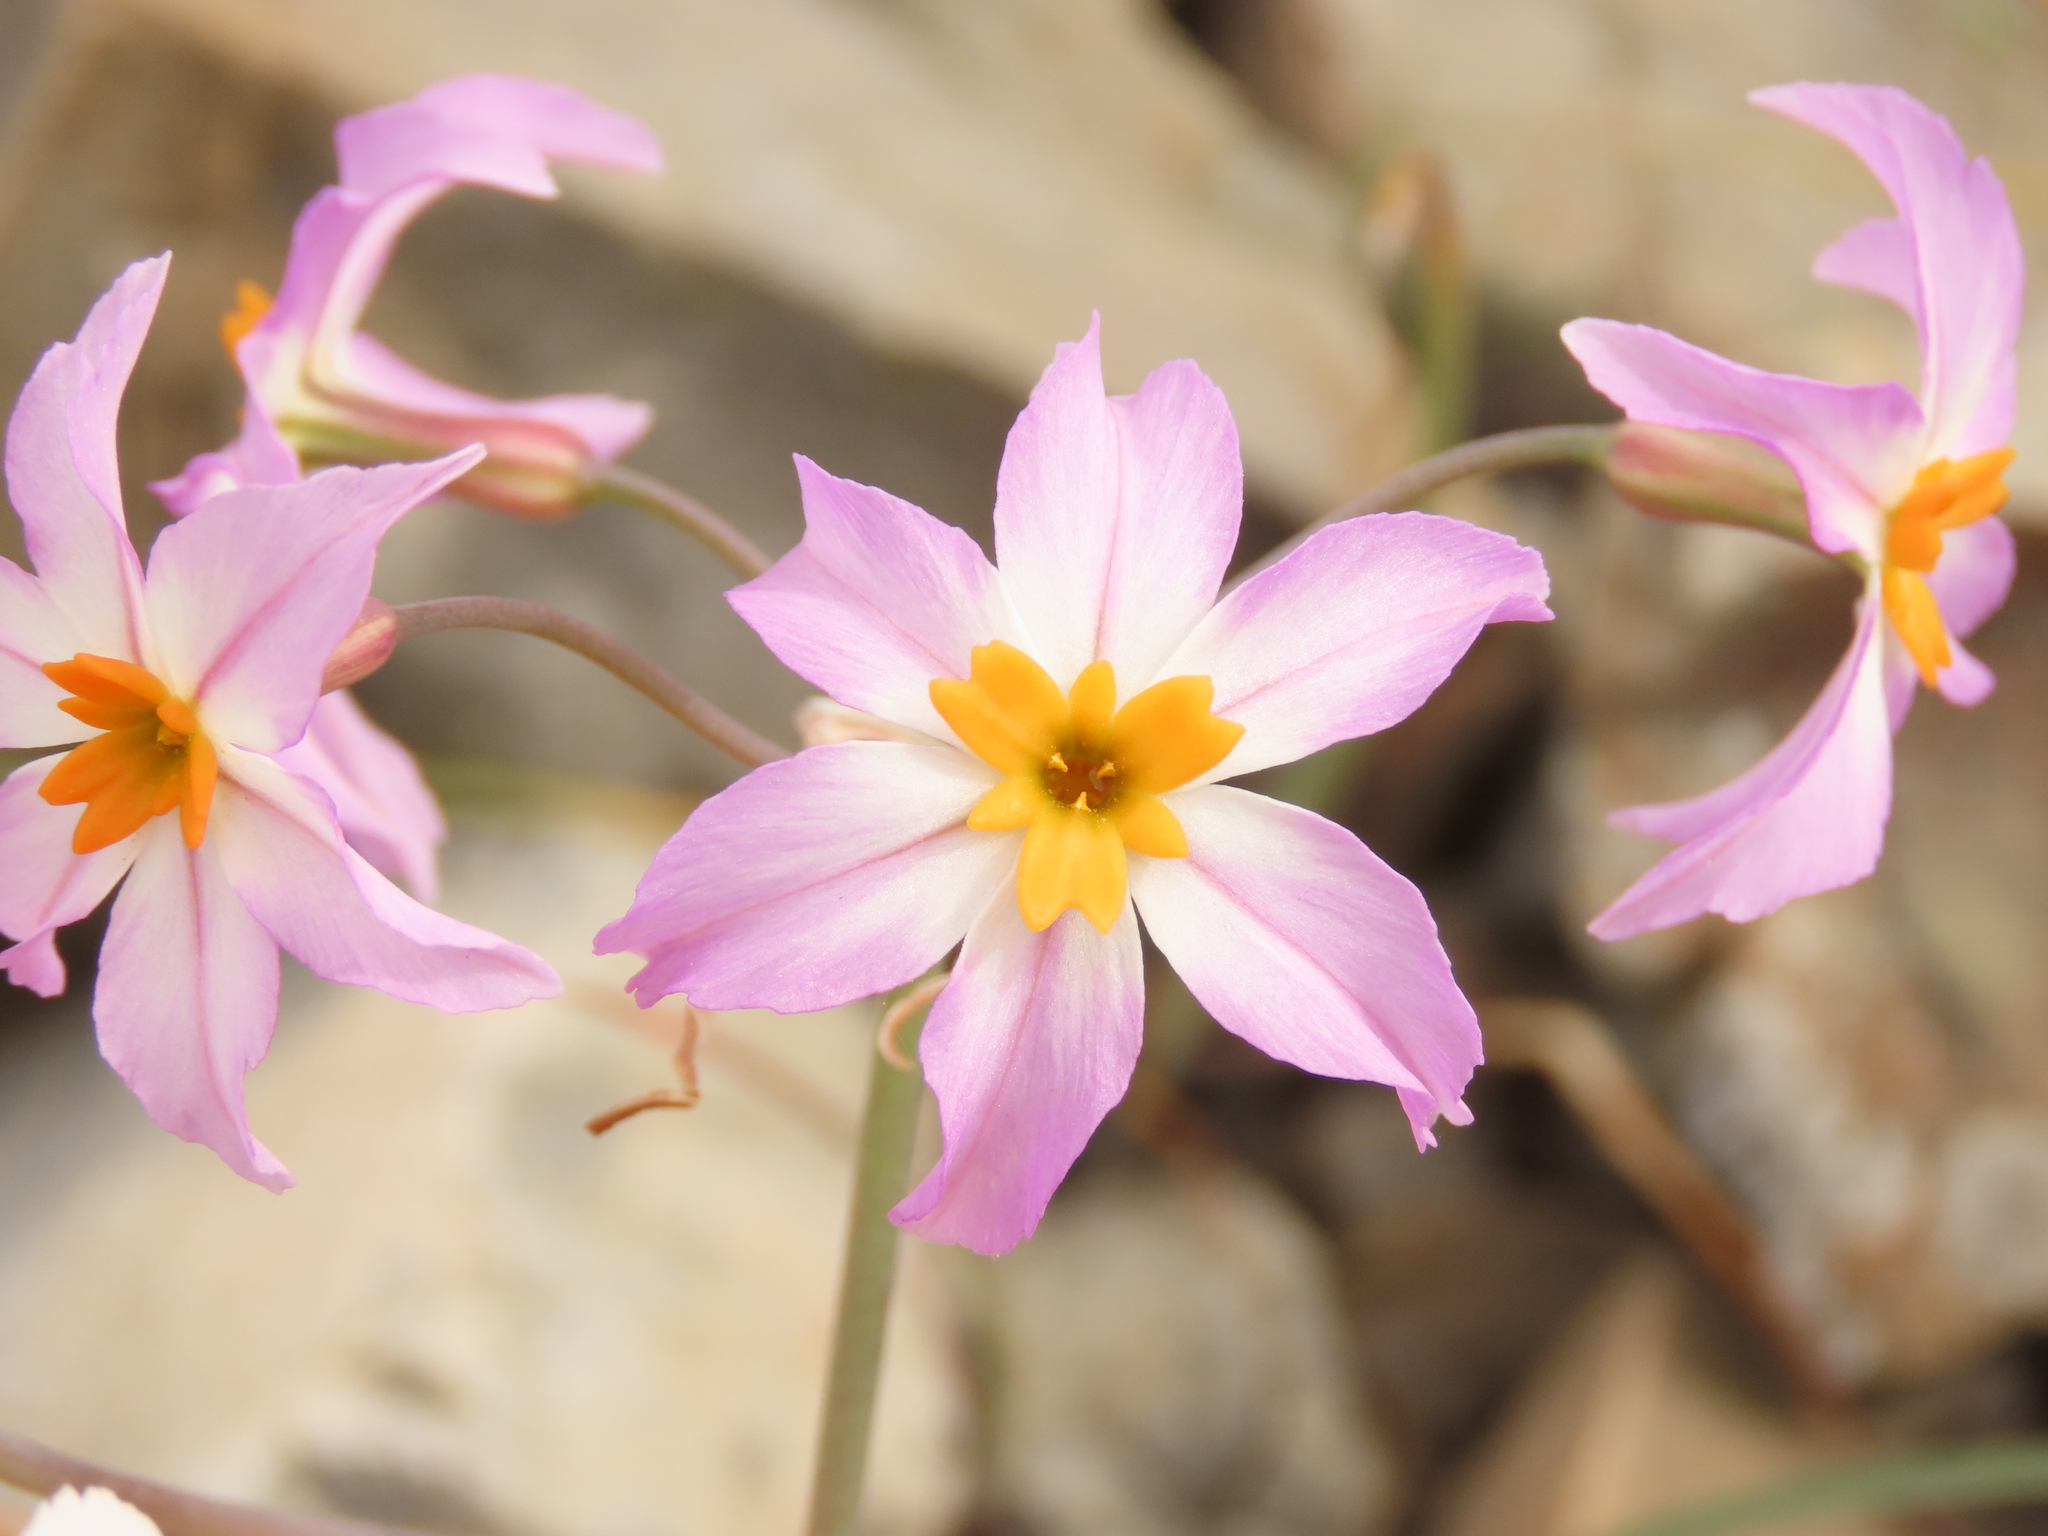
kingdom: Plantae
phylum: Tracheophyta
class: Liliopsida
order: Asparagales
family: Amaryllidaceae
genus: Leucocoryne
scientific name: Leucocoryne coronata
